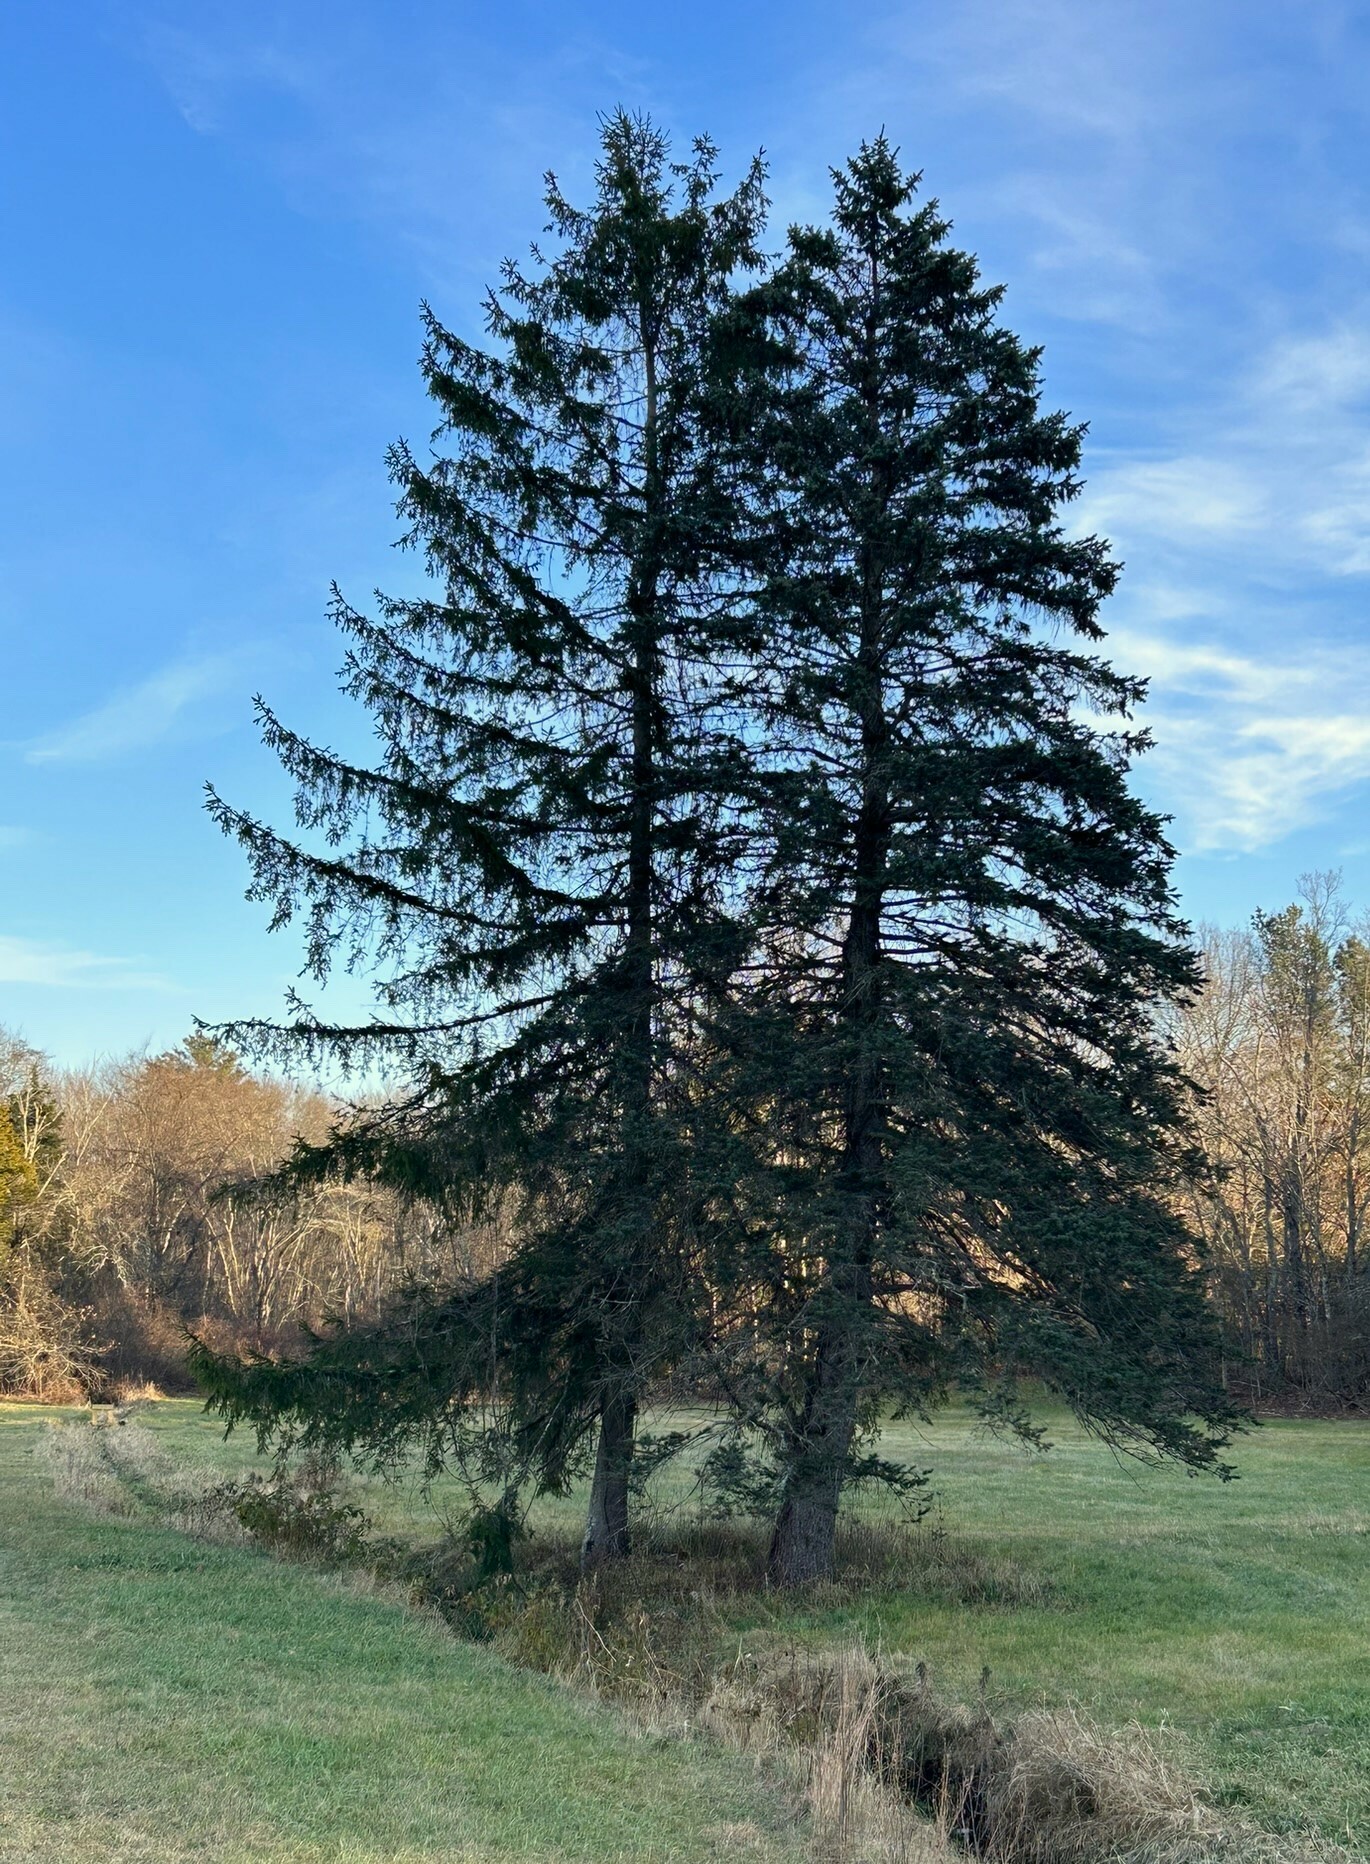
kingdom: Plantae
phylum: Tracheophyta
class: Pinopsida
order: Pinales
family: Pinaceae
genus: Picea
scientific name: Picea abies
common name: Norway spruce
